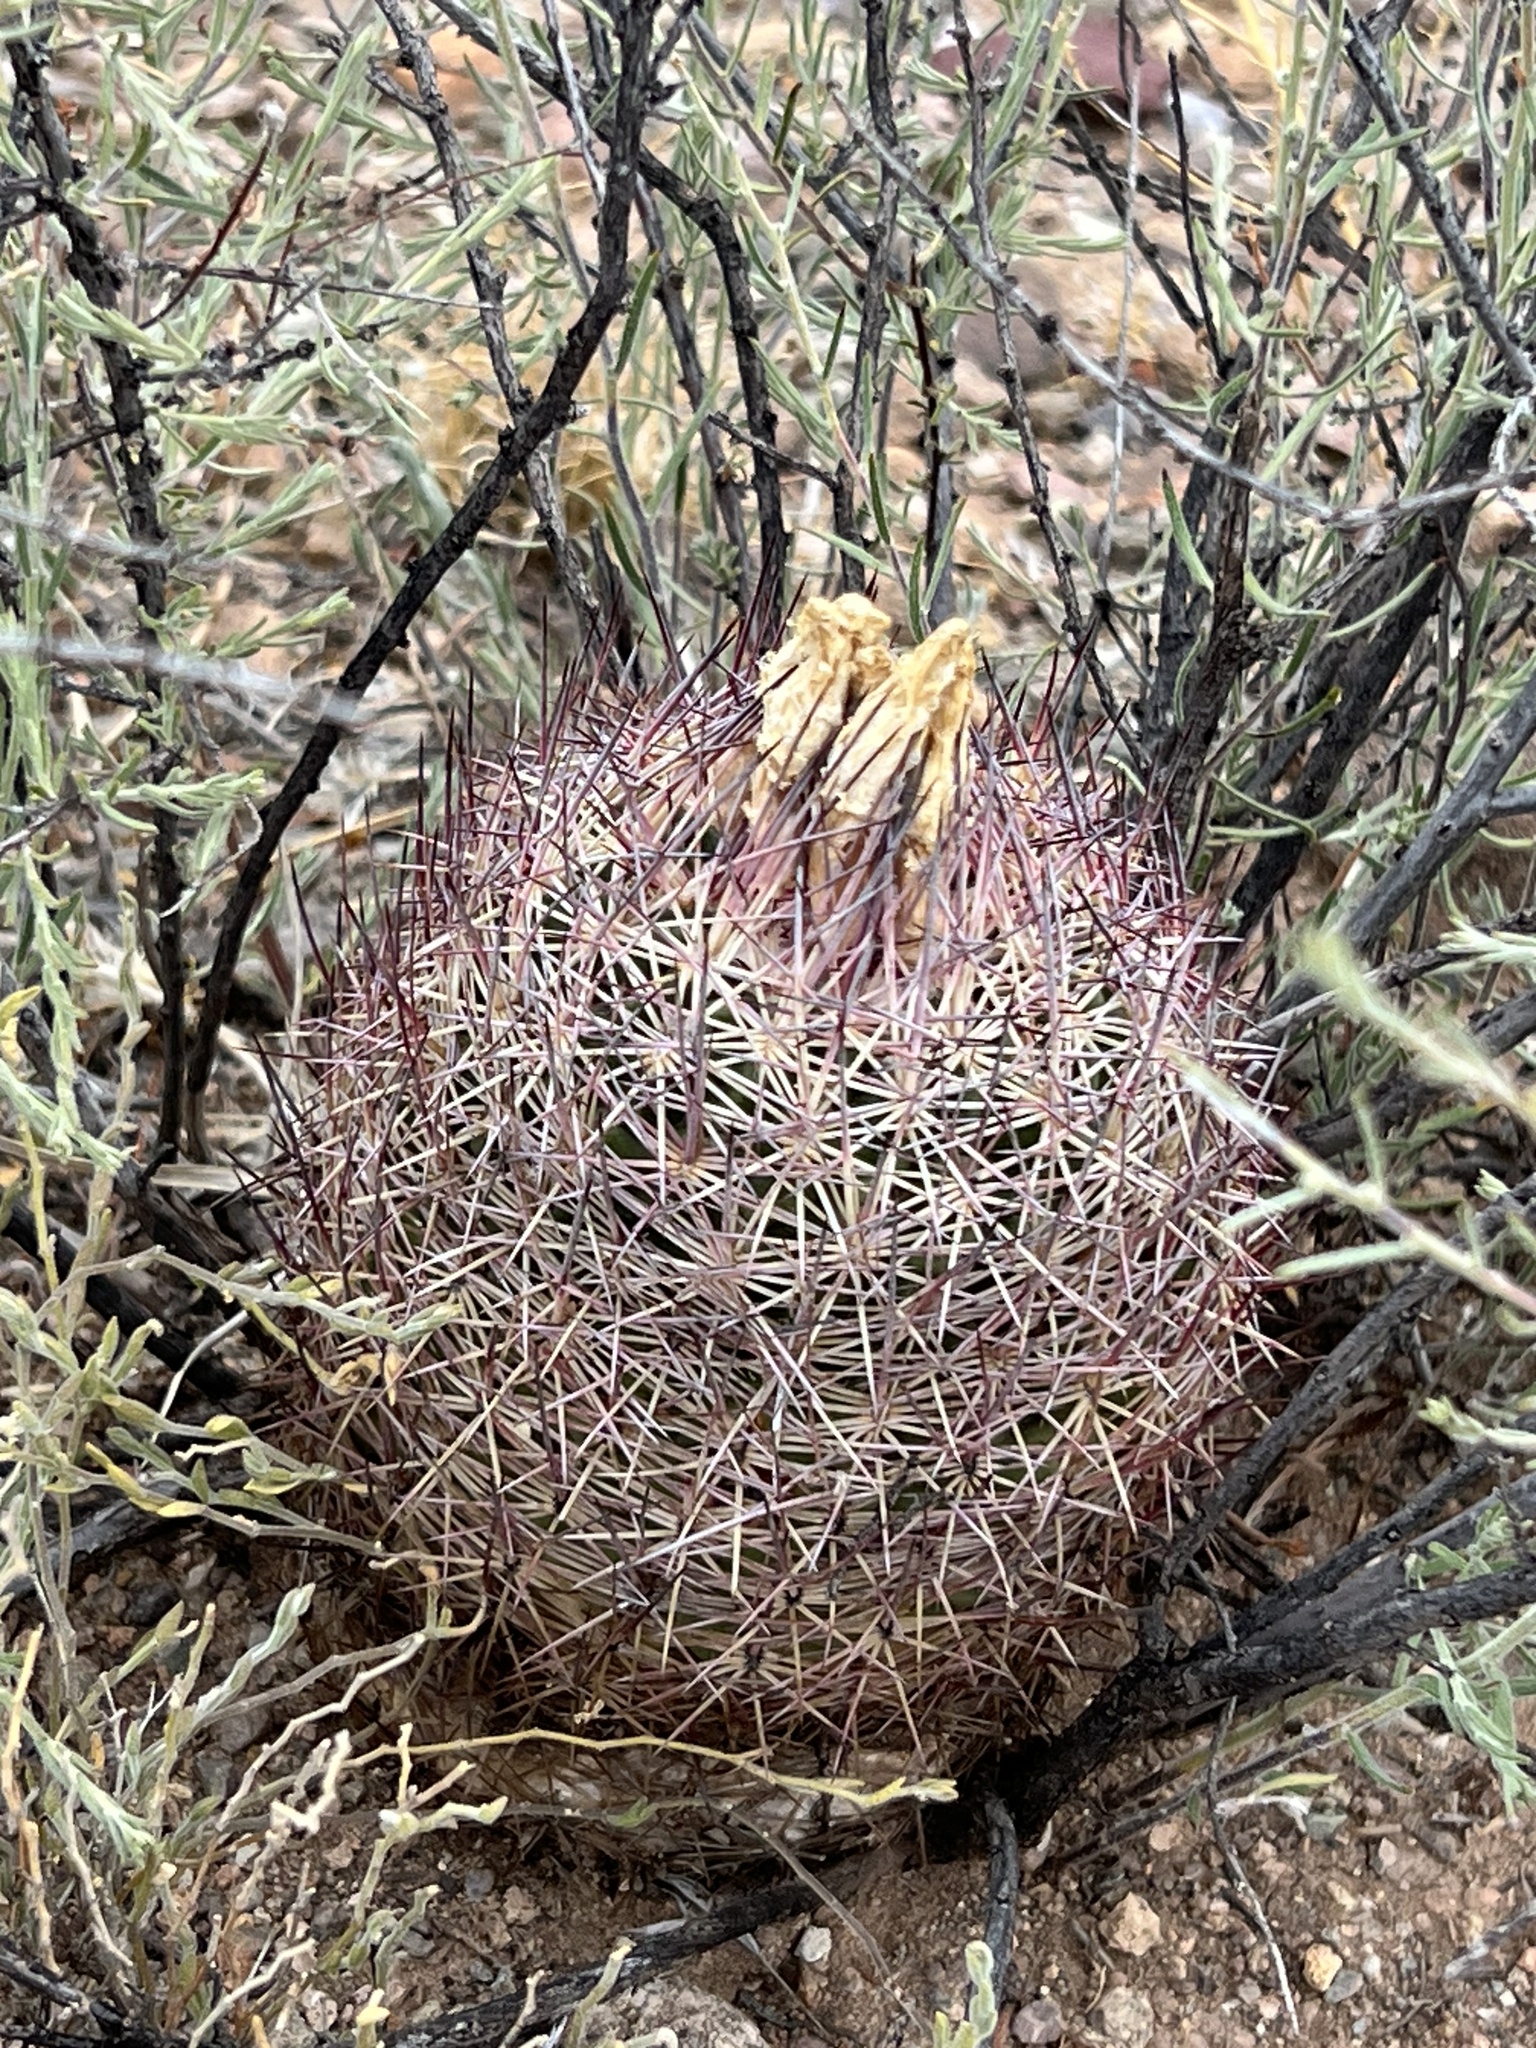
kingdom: Plantae
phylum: Tracheophyta
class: Magnoliopsida
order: Caryophyllales
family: Cactaceae
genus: Sclerocactus
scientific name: Sclerocactus johnsonii
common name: Eight-spine fishhook cactus
